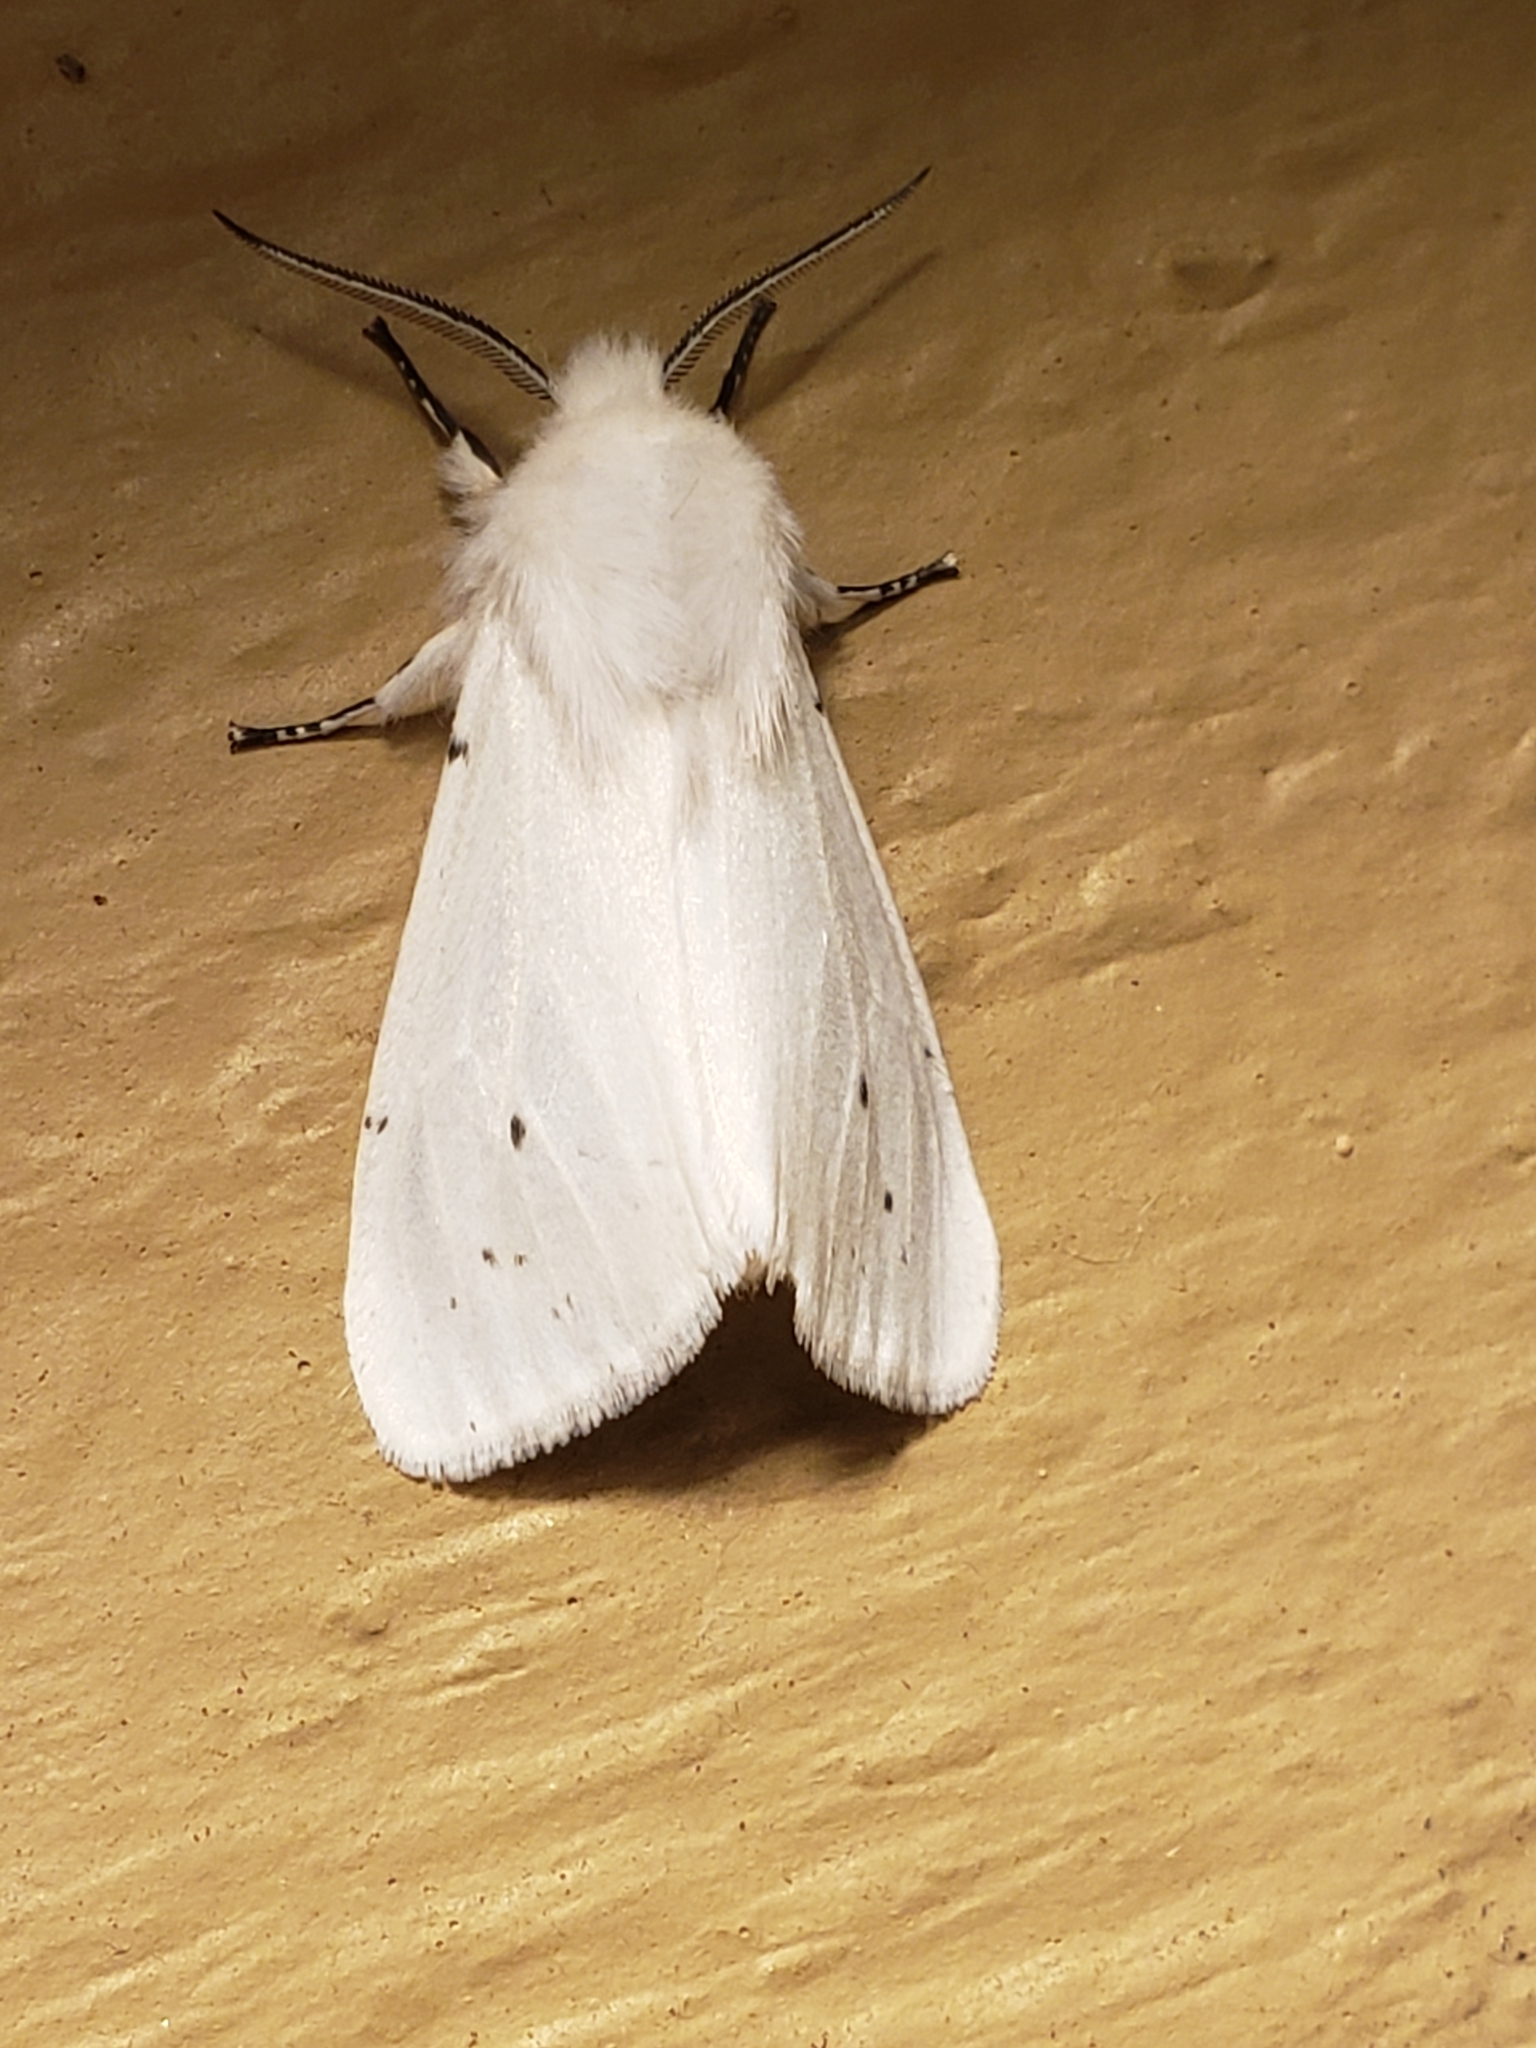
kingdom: Animalia
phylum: Arthropoda
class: Insecta
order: Lepidoptera
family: Erebidae
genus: Hyphantria
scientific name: Hyphantria cunea
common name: American white moth
